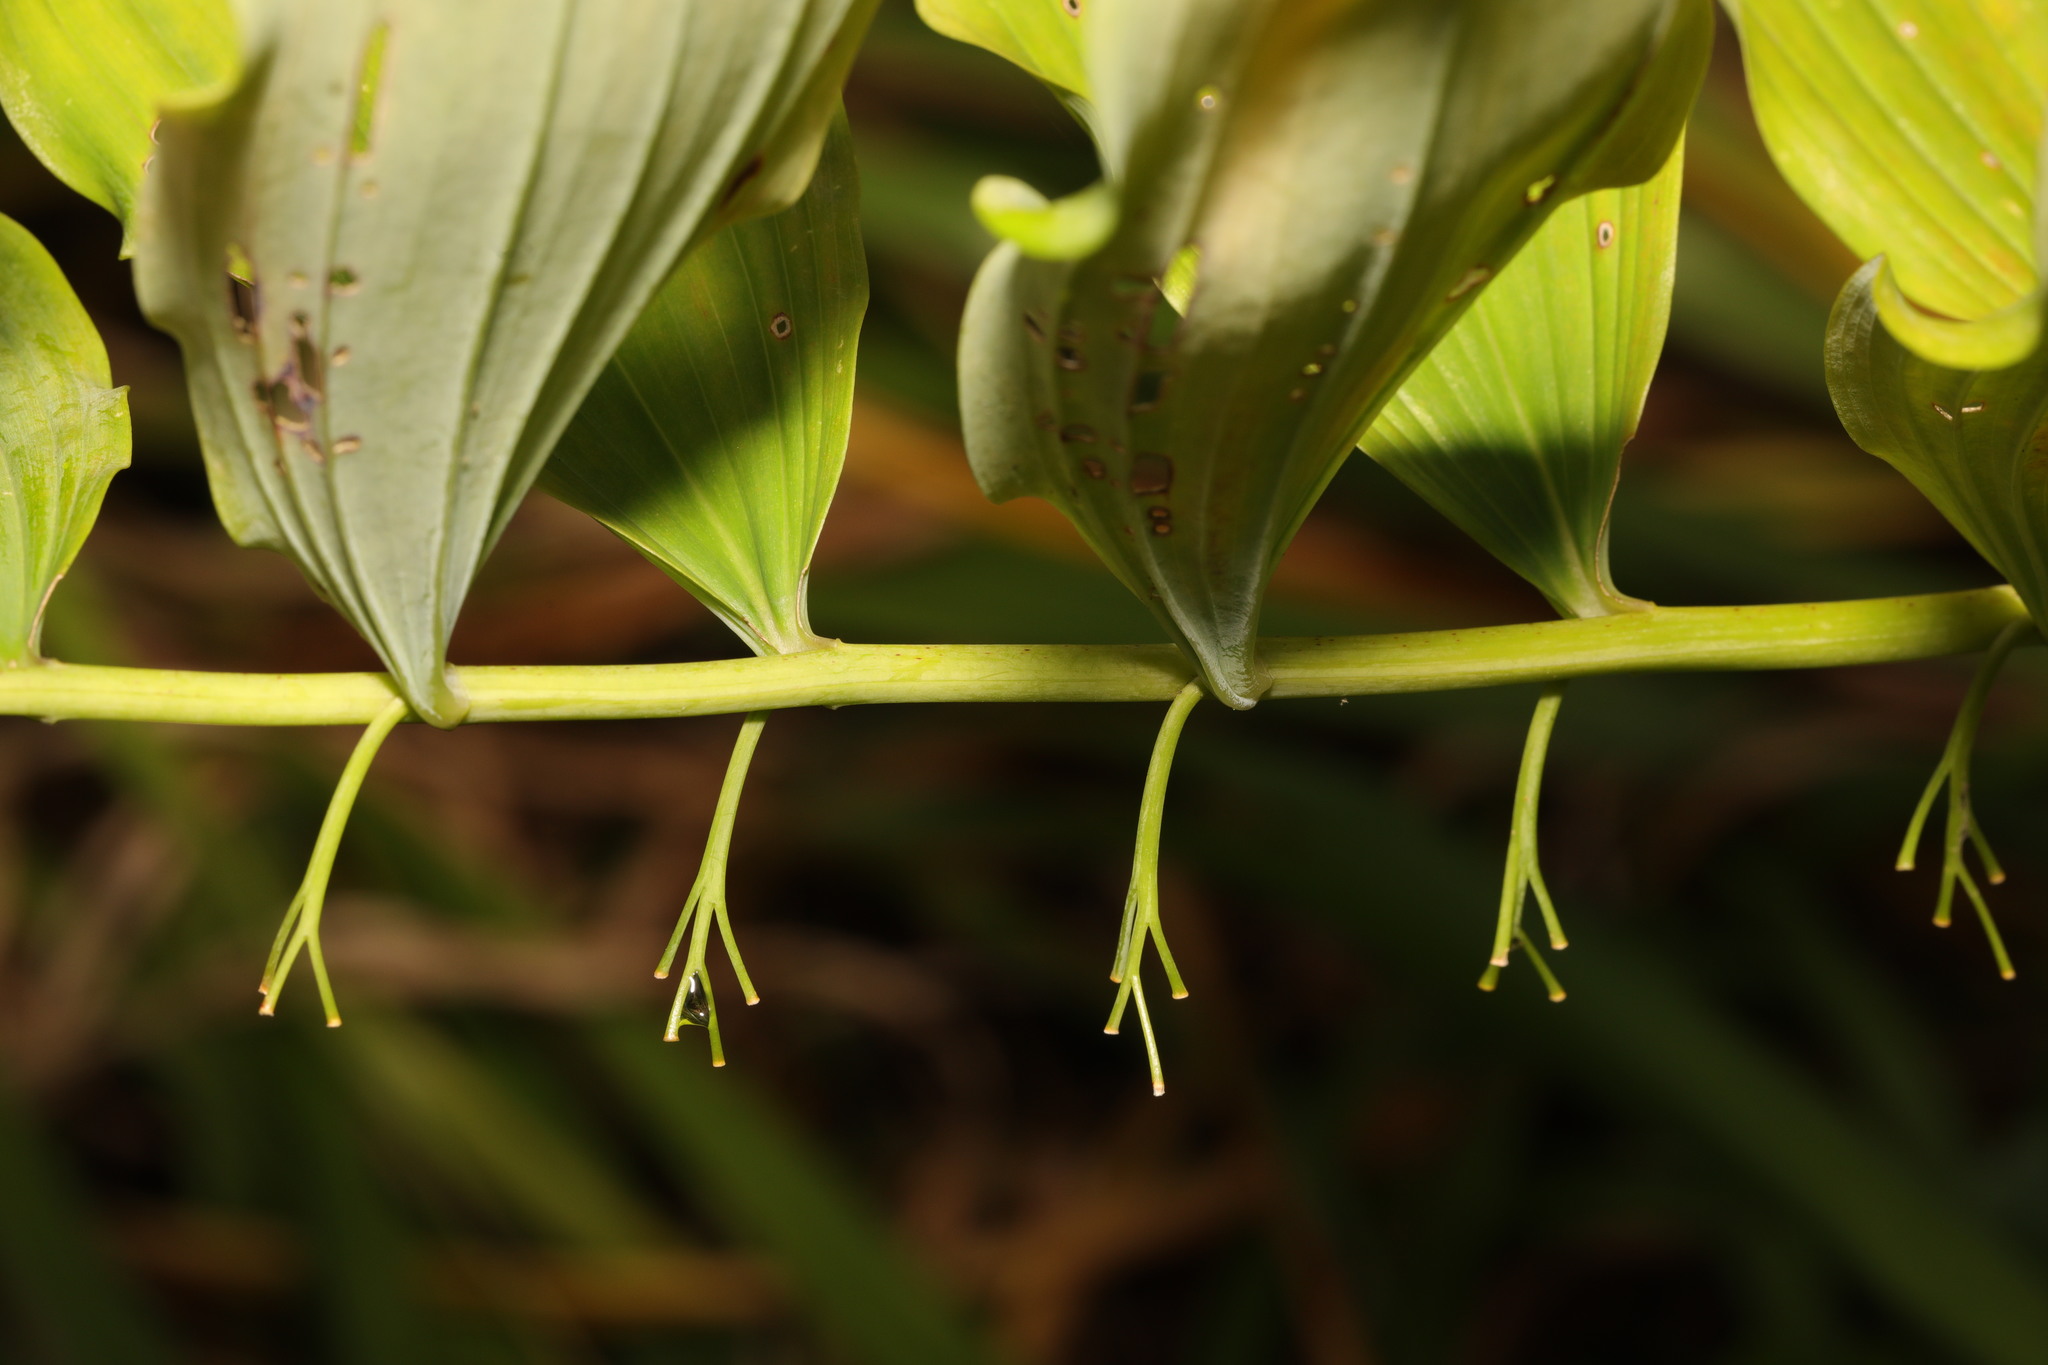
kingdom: Plantae
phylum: Tracheophyta
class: Liliopsida
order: Asparagales
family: Asparagaceae
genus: Polygonatum
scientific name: Polygonatum hybridum
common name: Garden solomon's-seal
